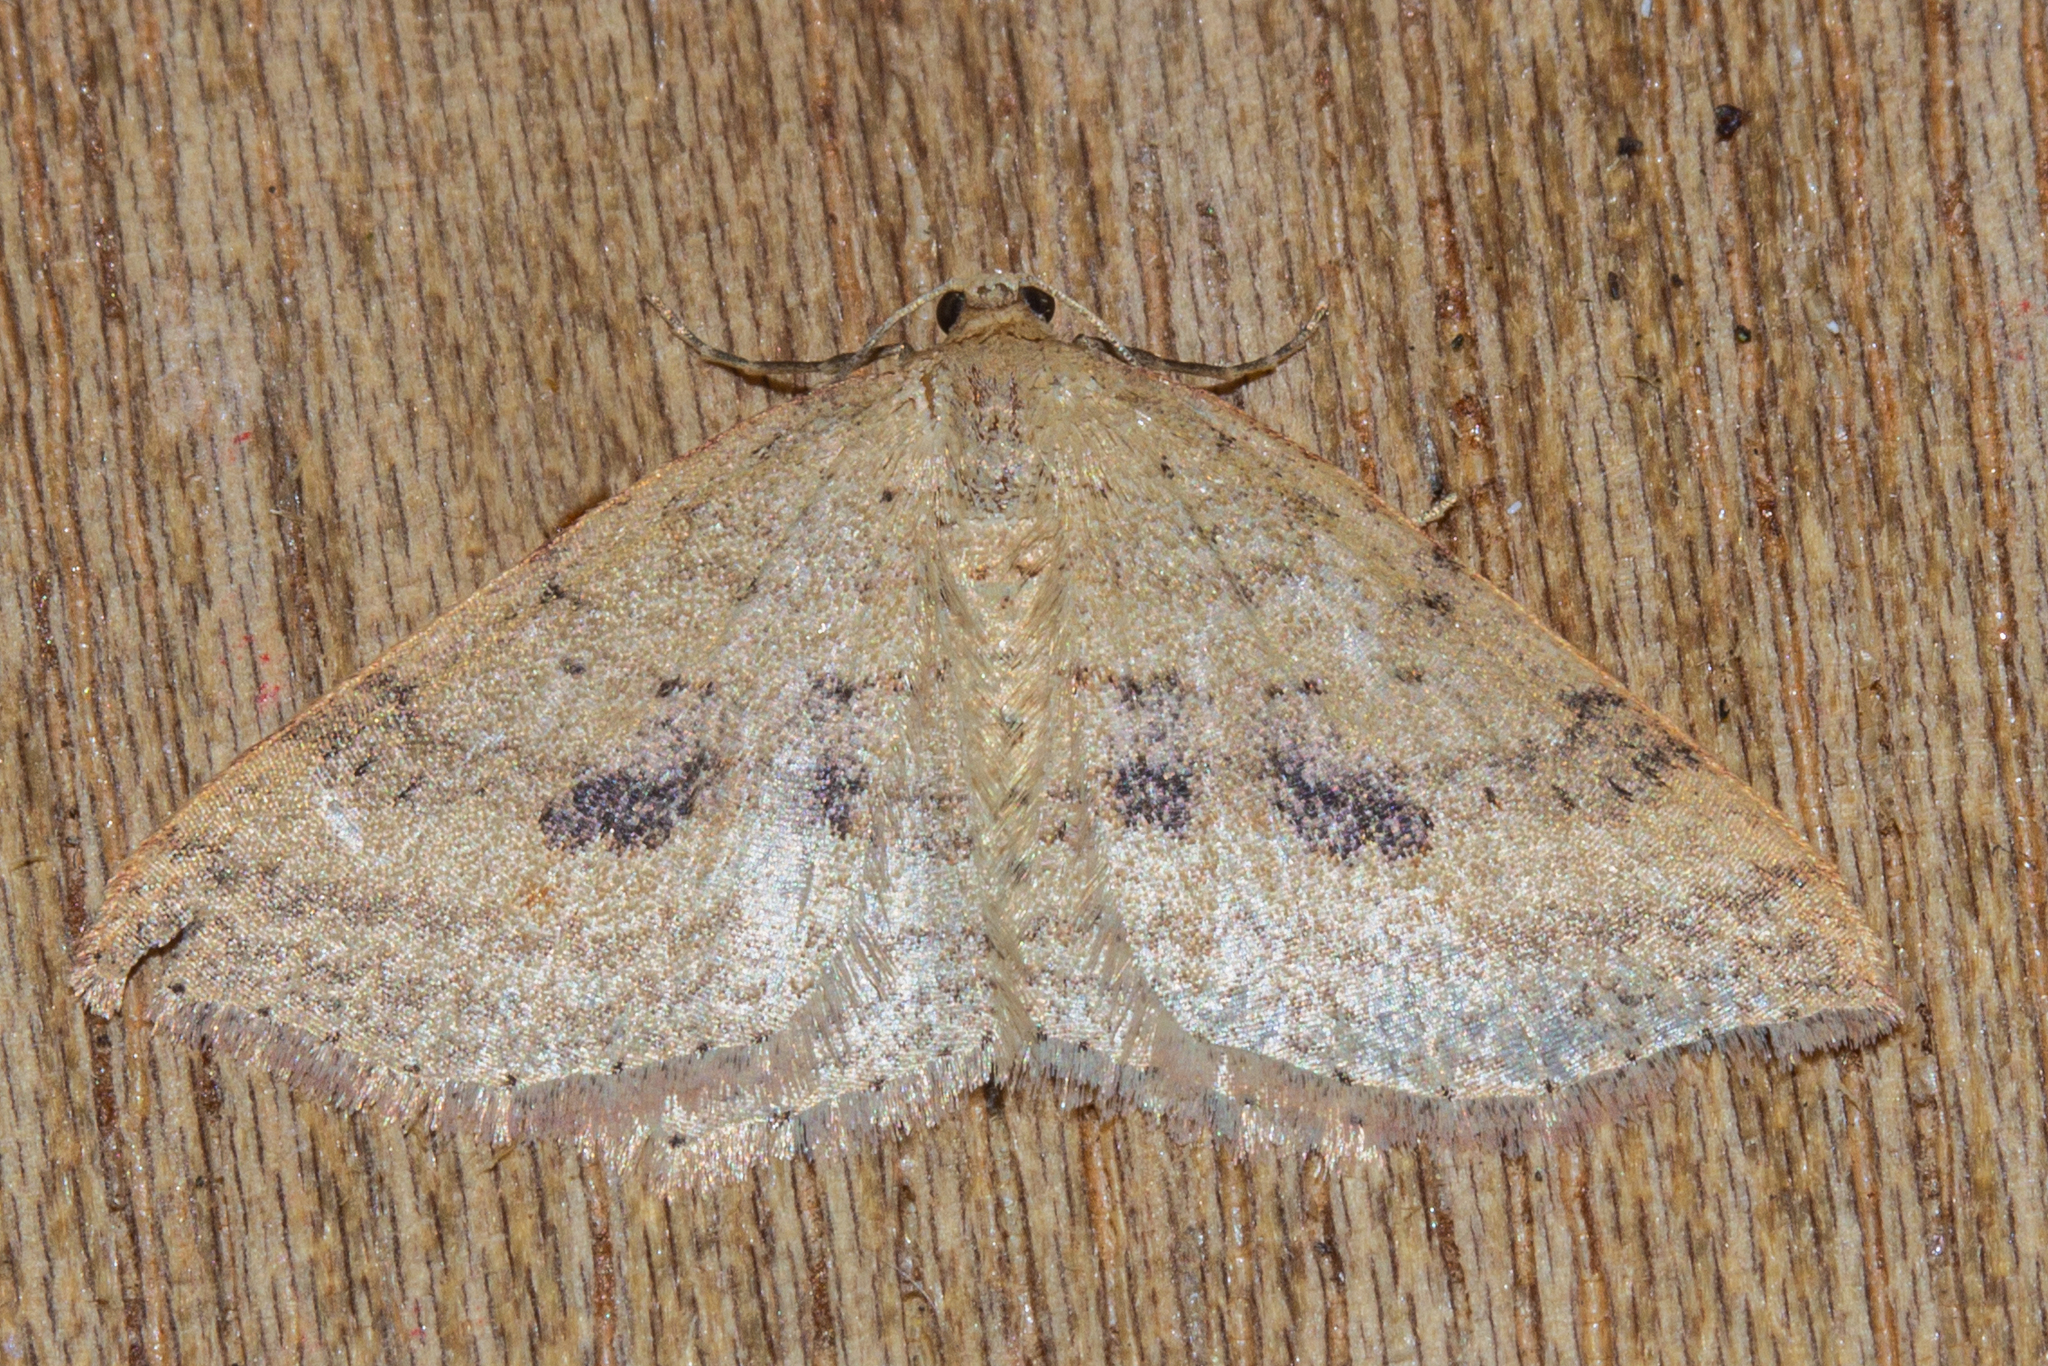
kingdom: Animalia
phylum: Arthropoda
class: Insecta
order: Lepidoptera
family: Geometridae
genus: Epicyme
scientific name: Epicyme rubropunctaria
